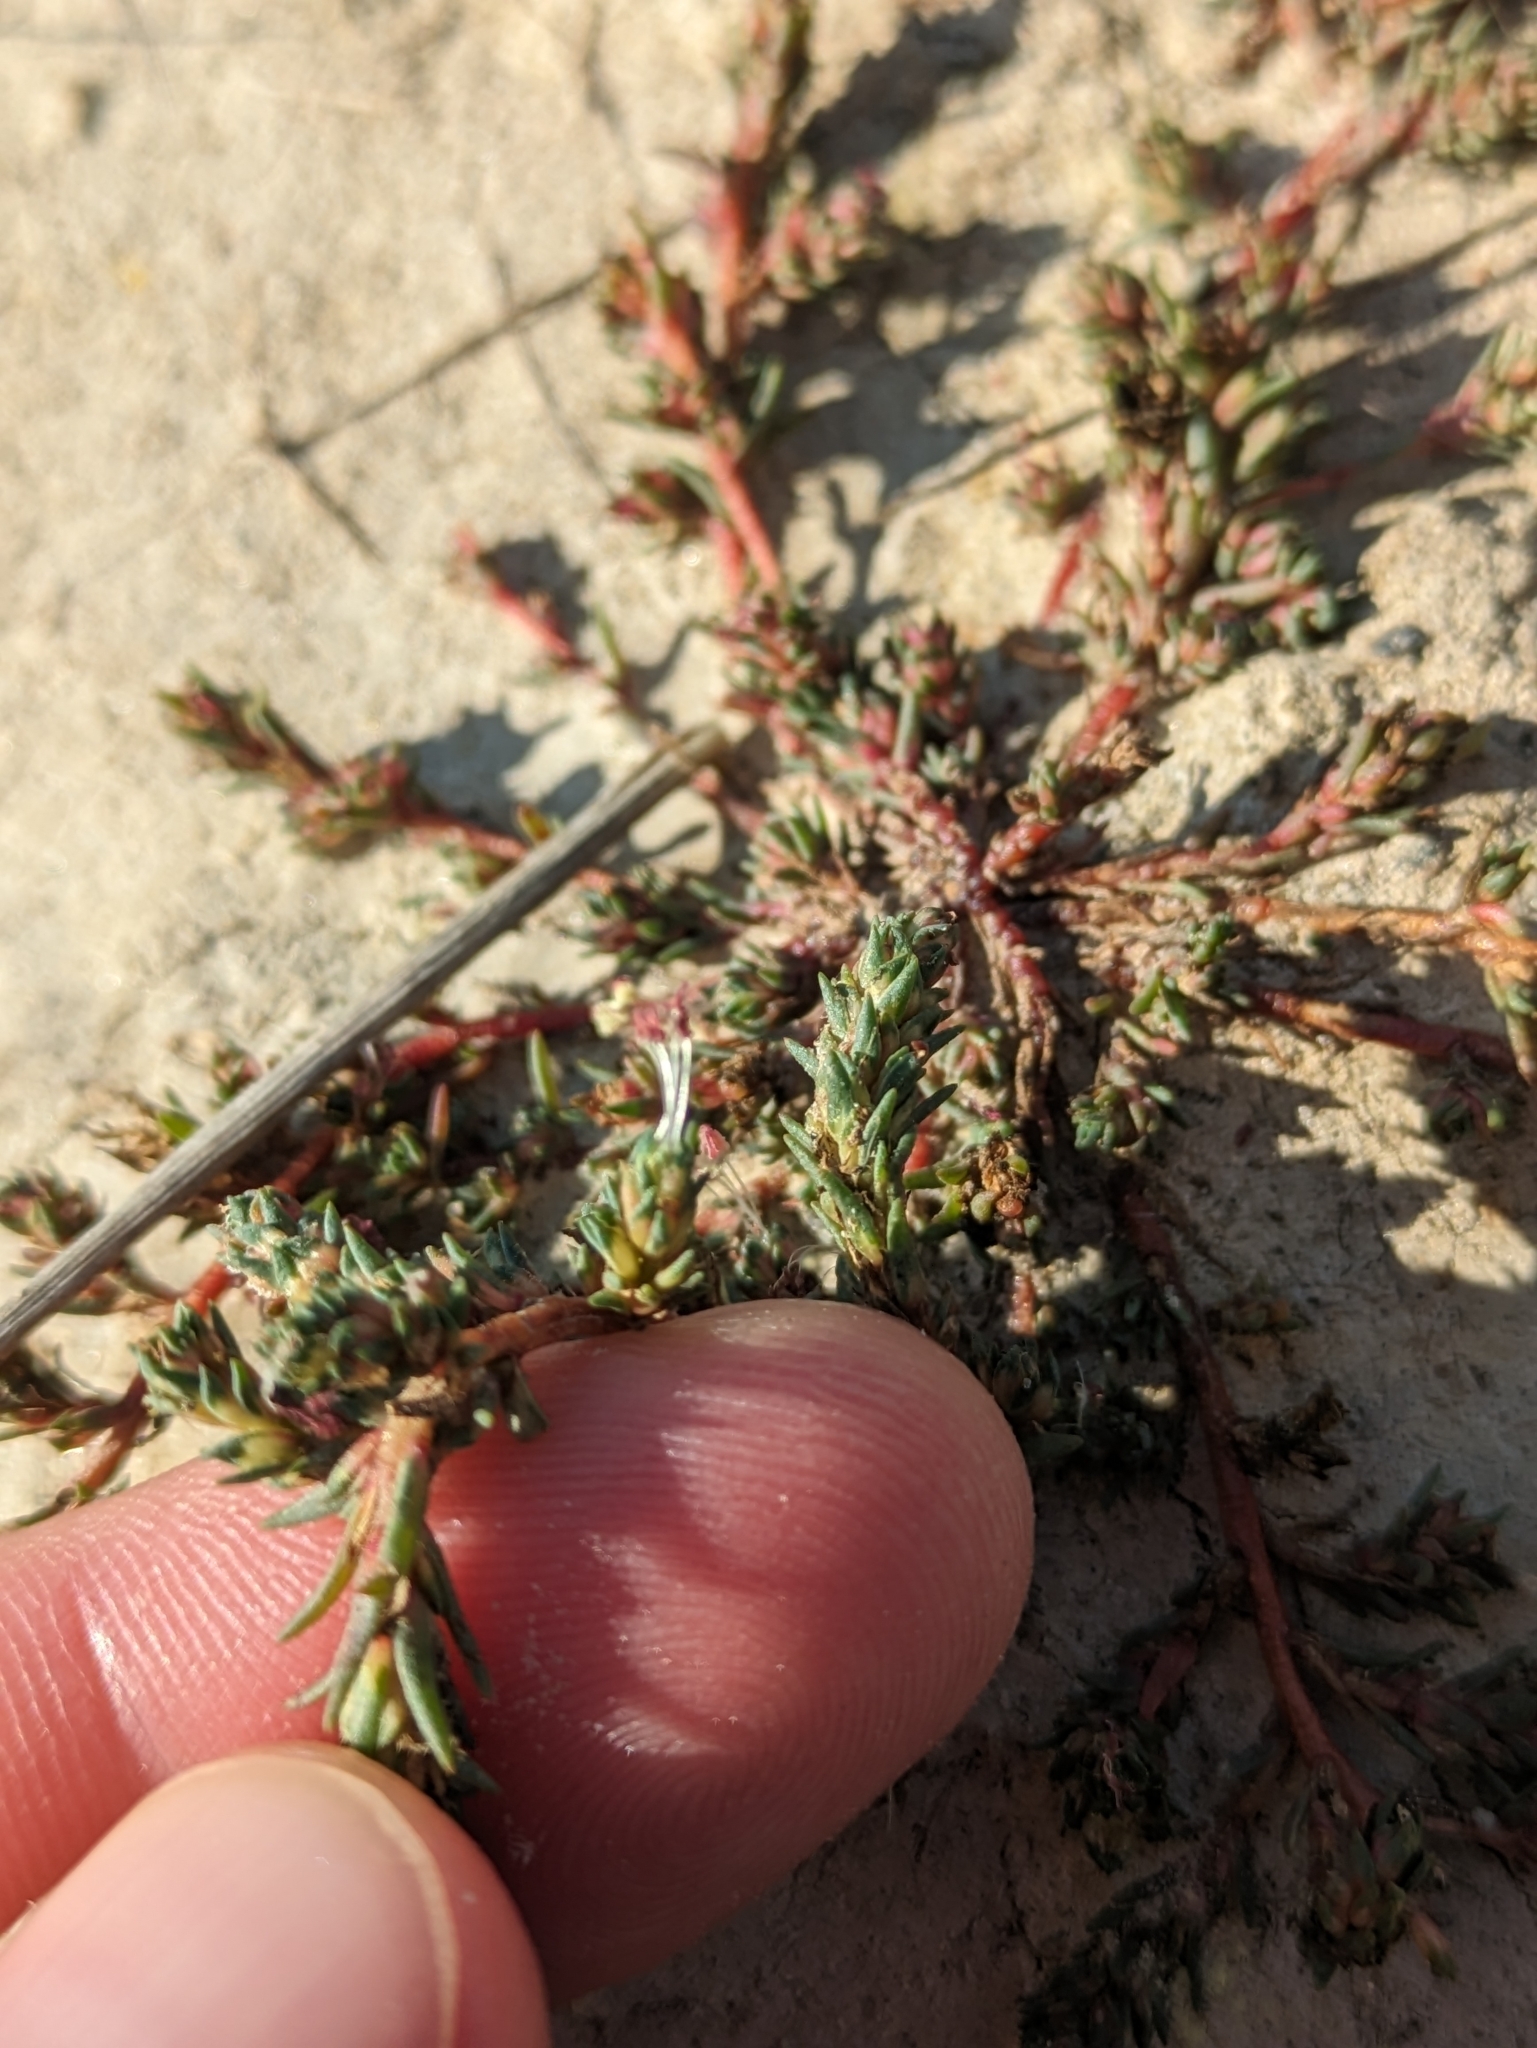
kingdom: Plantae
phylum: Tracheophyta
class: Magnoliopsida
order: Caryophyllales
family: Amaranthaceae
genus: Camphorosma
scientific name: Camphorosma annua
